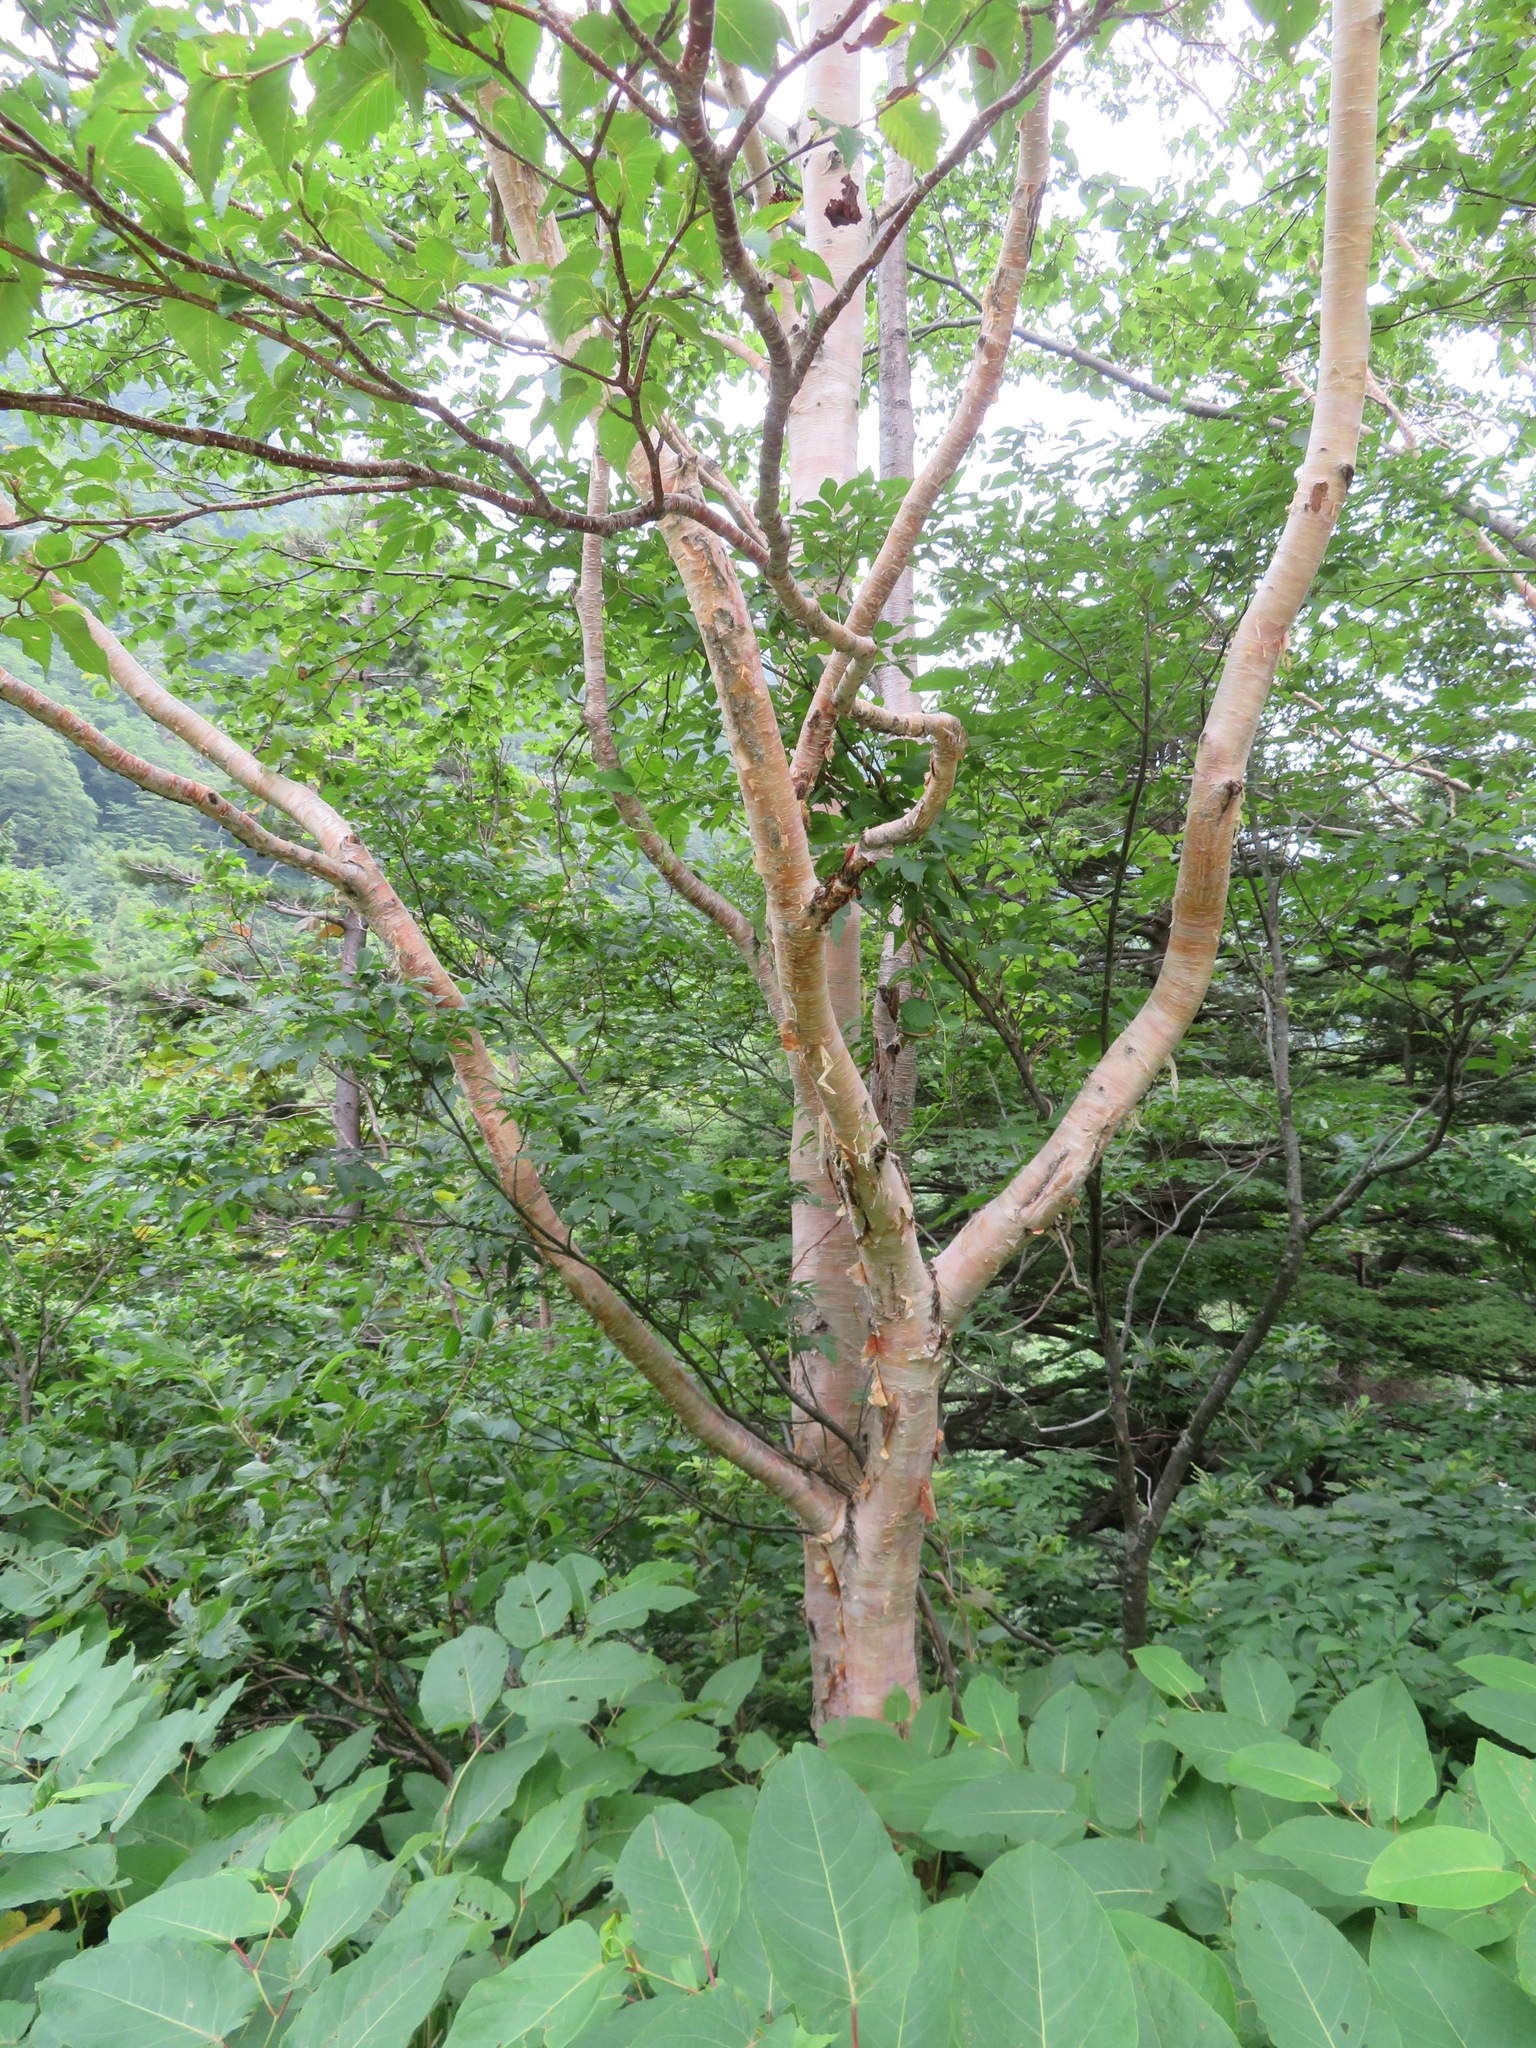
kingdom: Plantae
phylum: Tracheophyta
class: Magnoliopsida
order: Fagales
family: Betulaceae
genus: Betula
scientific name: Betula ermanii
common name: Erman's birch
